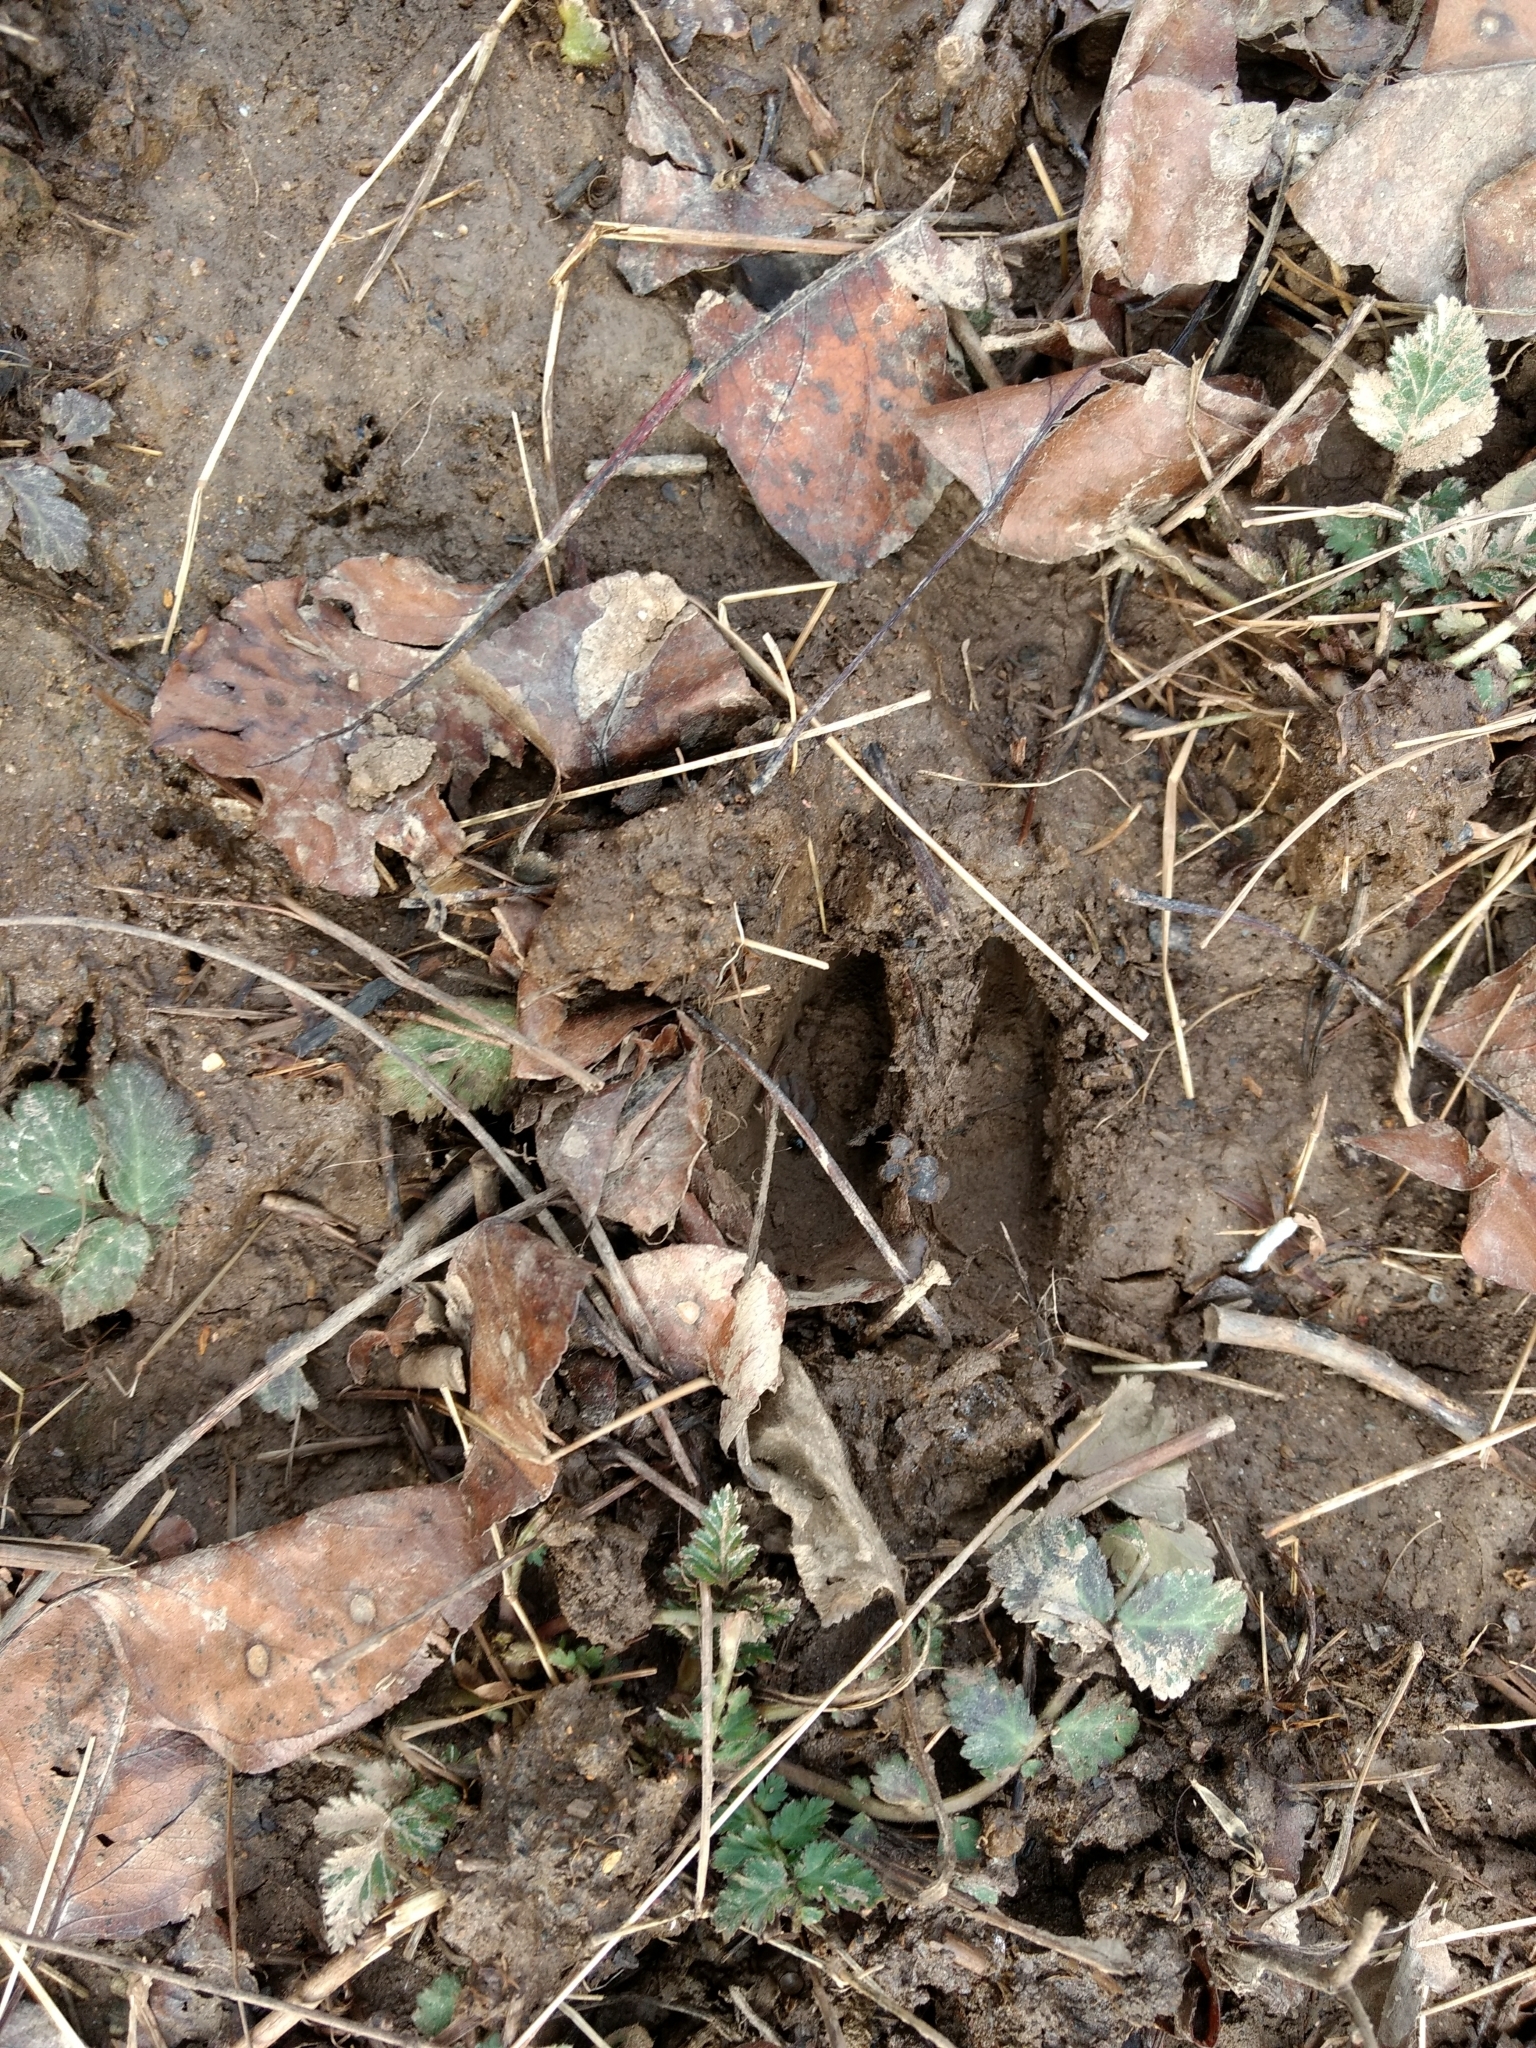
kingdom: Animalia
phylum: Chordata
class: Mammalia
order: Artiodactyla
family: Cervidae
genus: Odocoileus
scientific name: Odocoileus virginianus
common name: White-tailed deer
